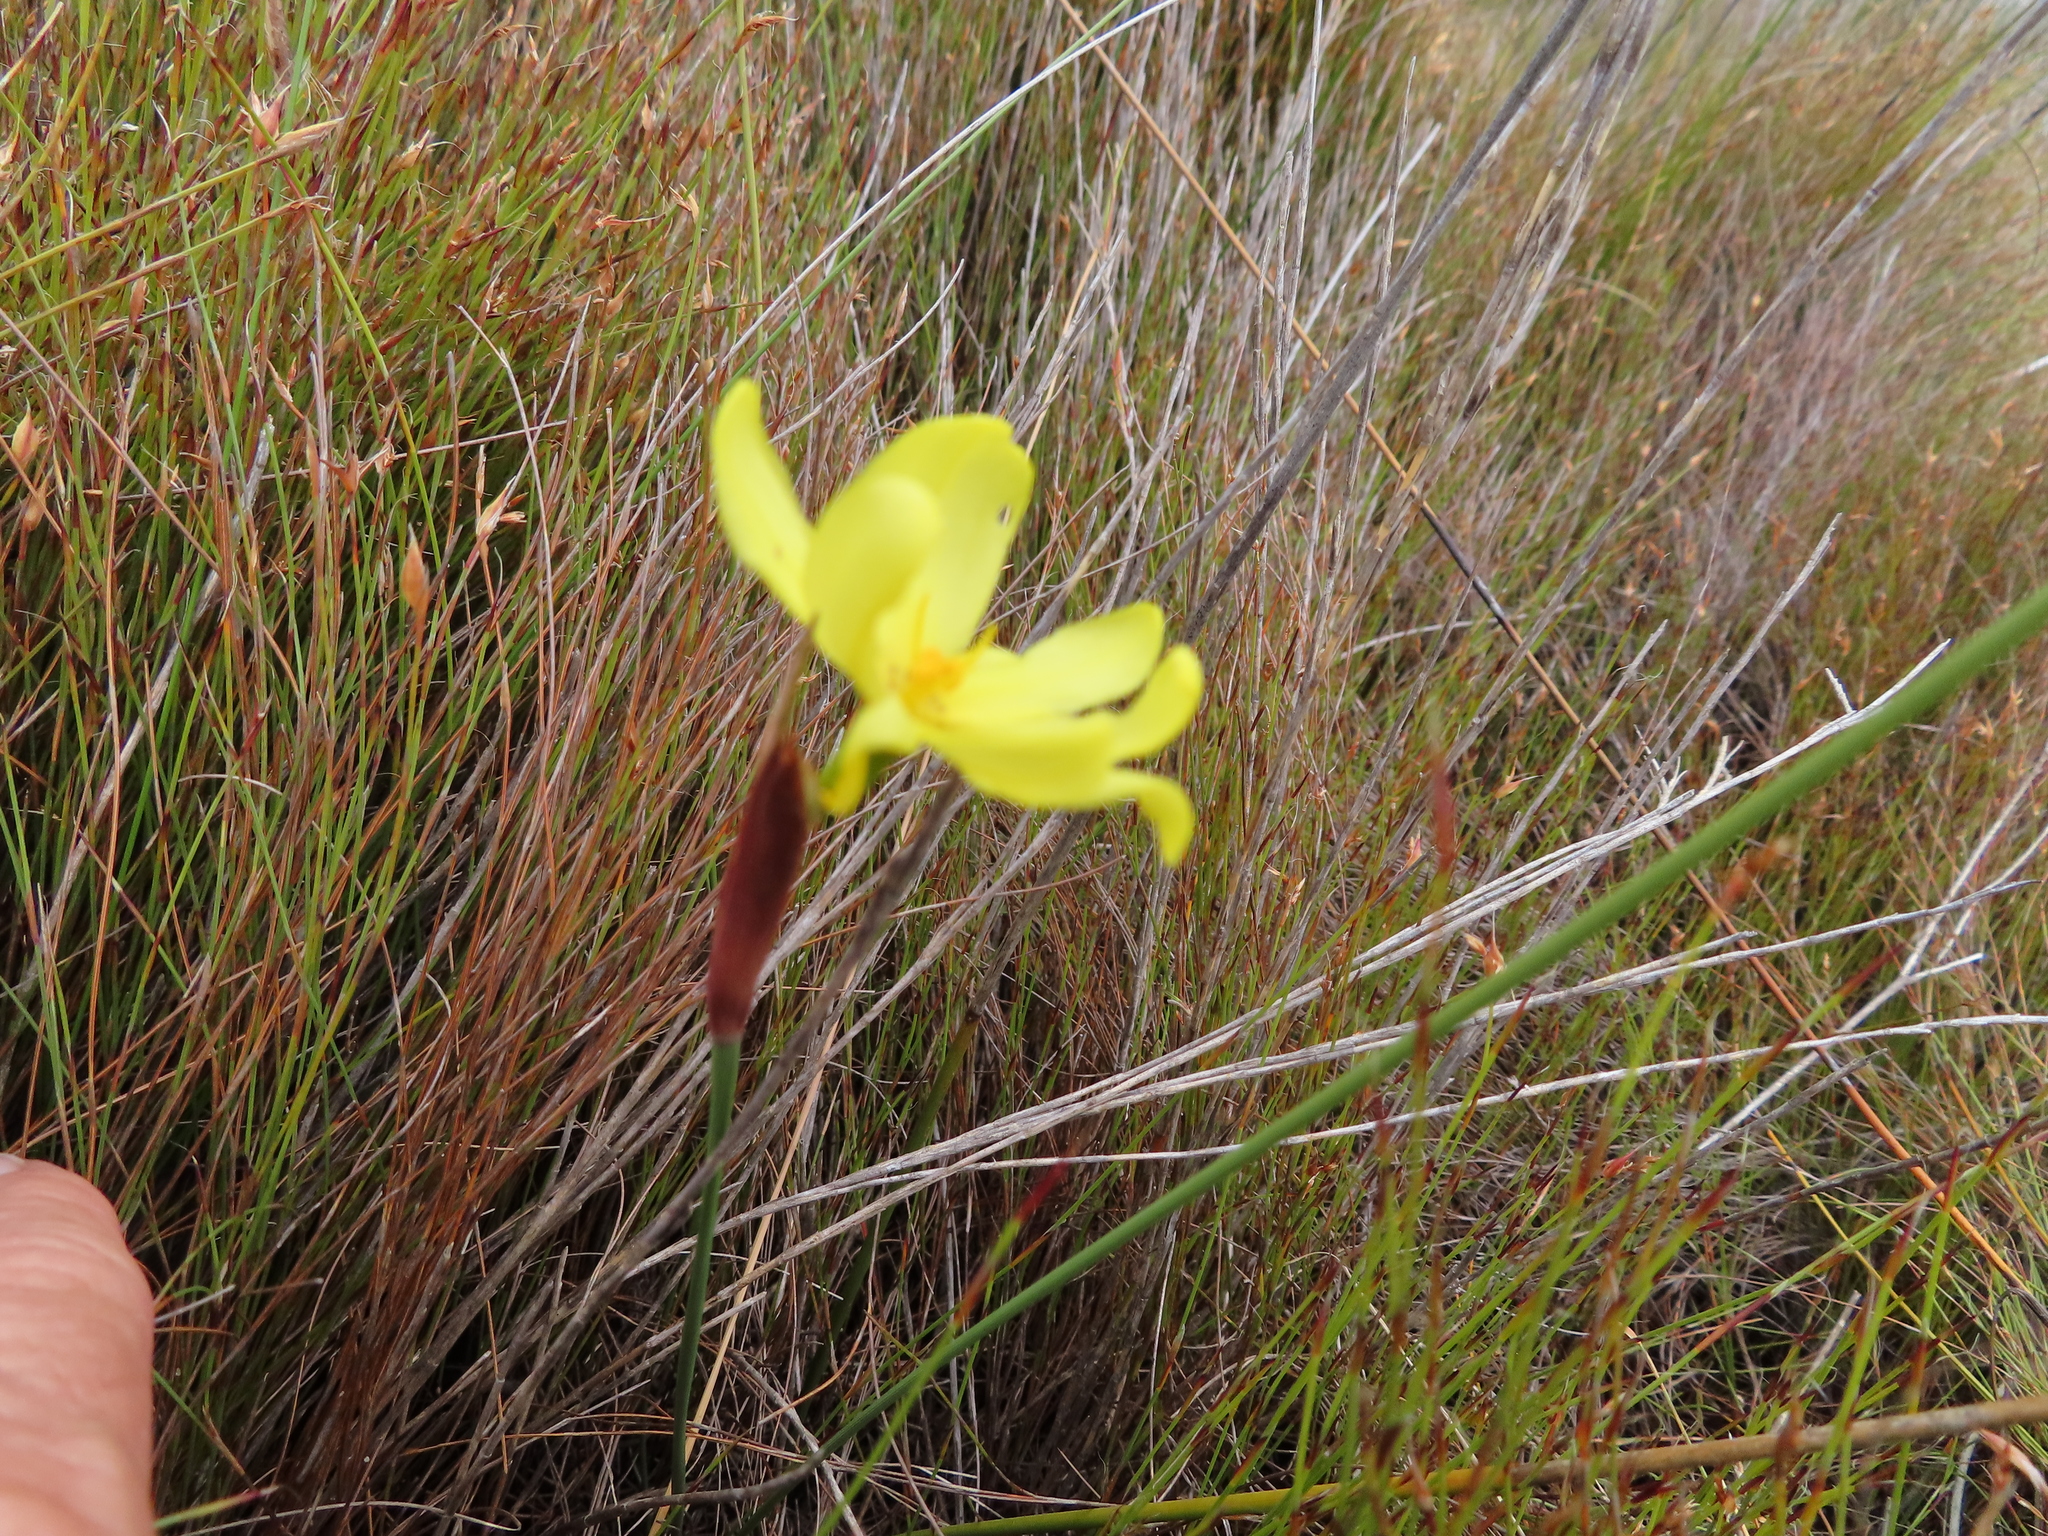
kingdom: Plantae
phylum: Tracheophyta
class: Liliopsida
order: Asparagales
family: Iridaceae
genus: Bobartia
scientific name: Bobartia parva
